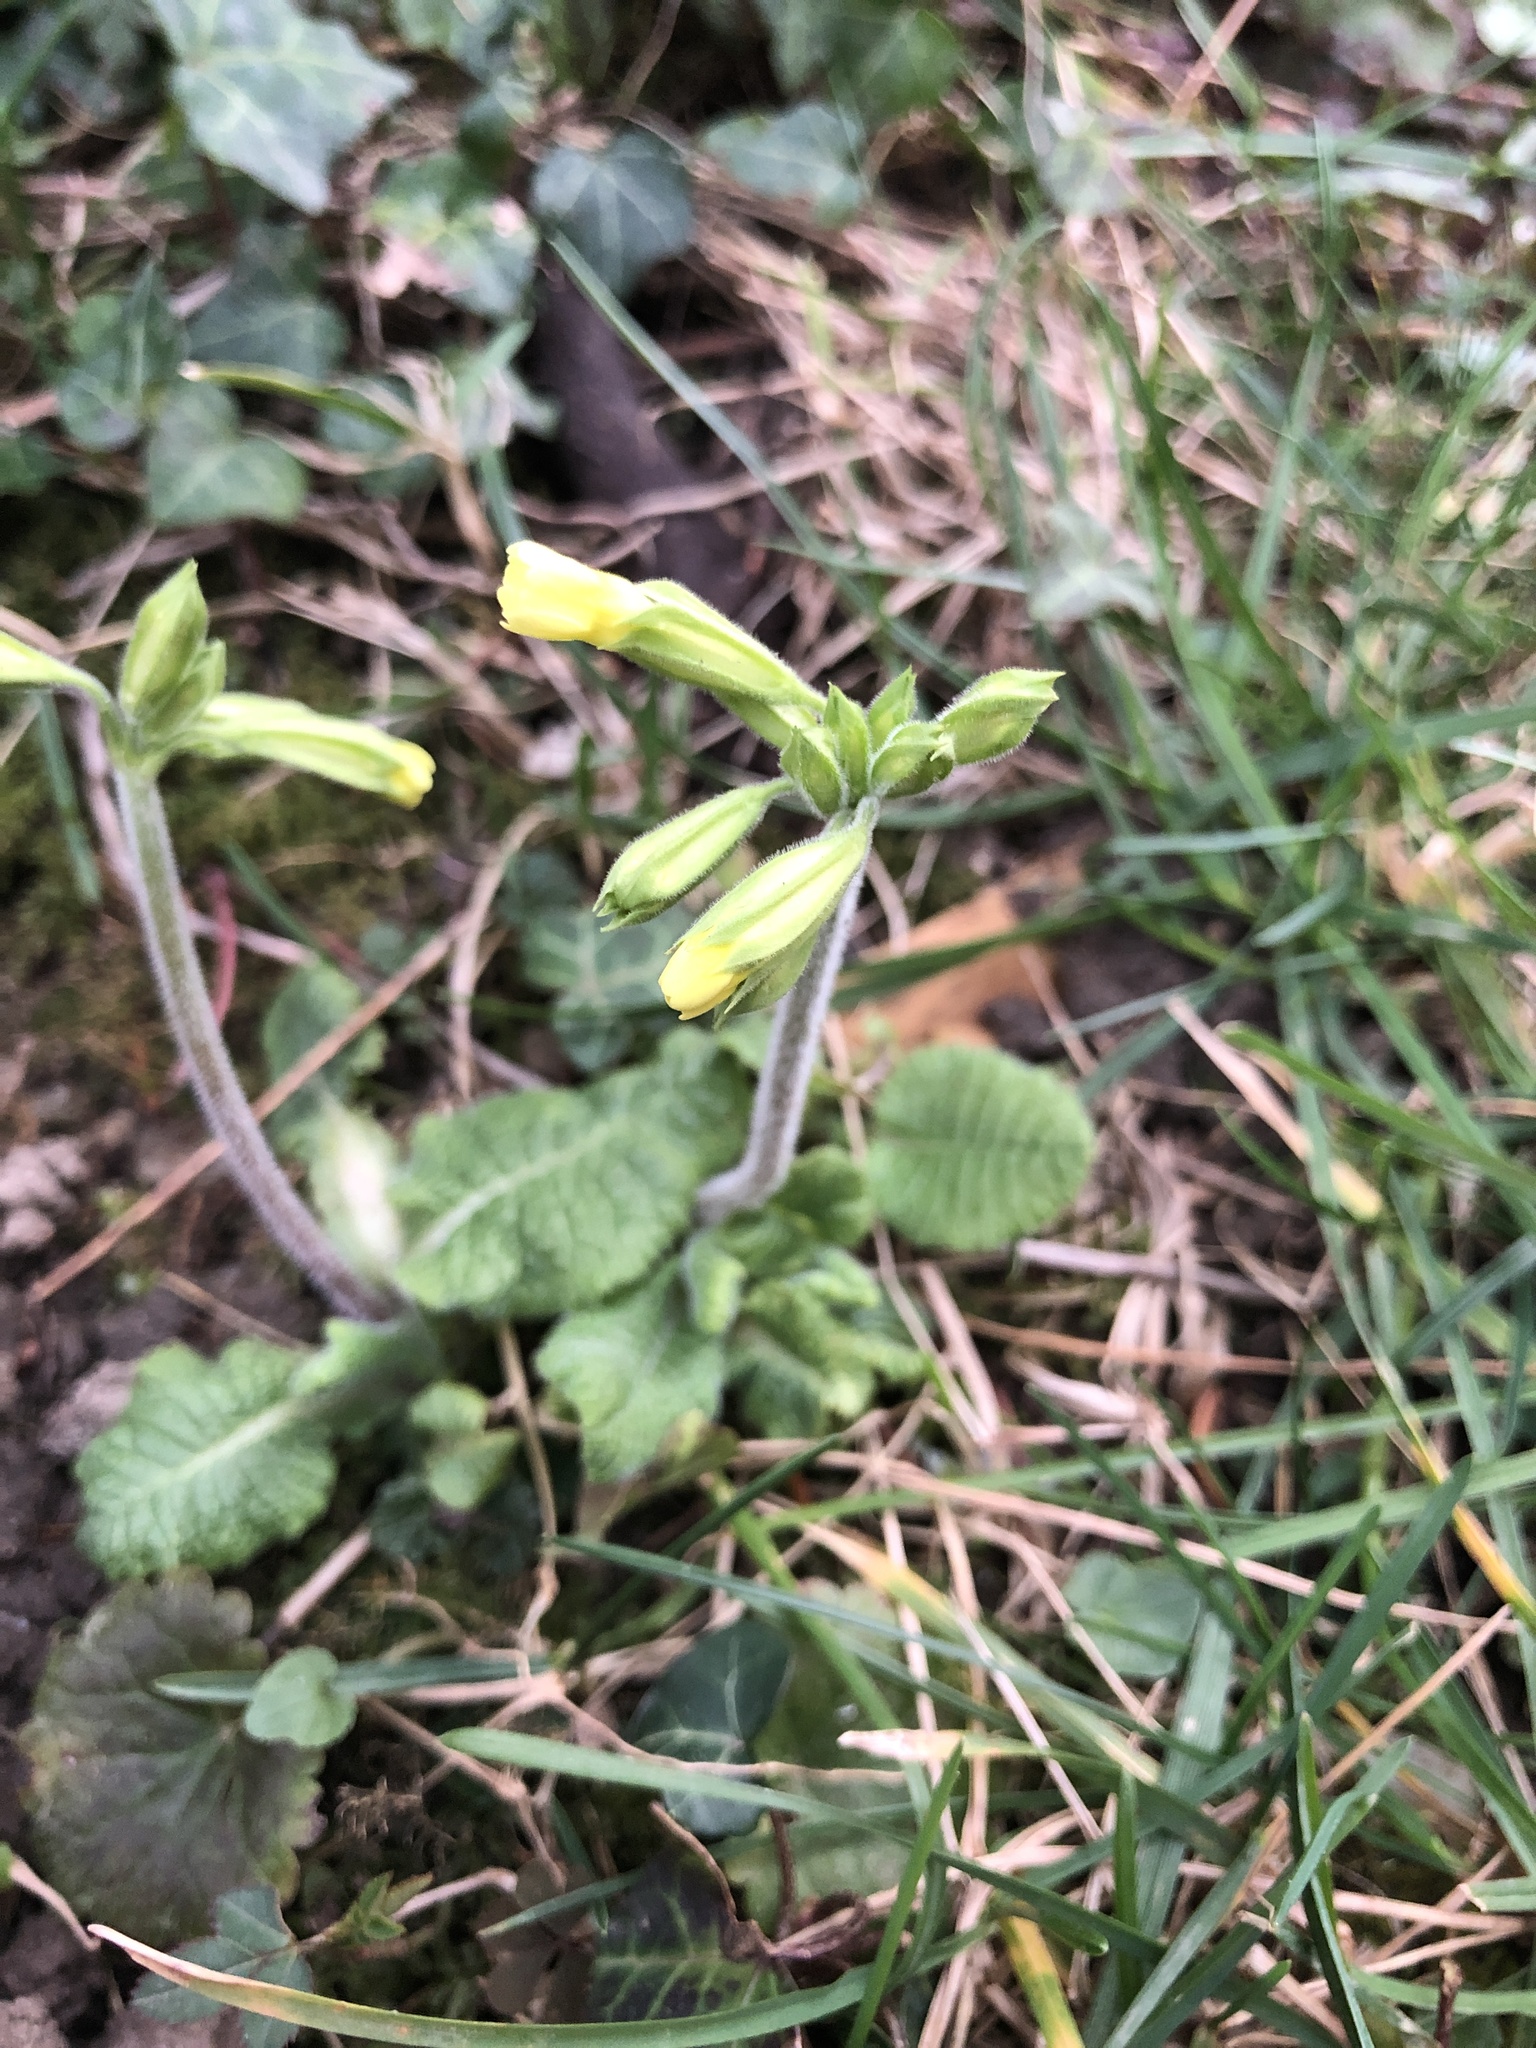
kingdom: Plantae
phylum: Tracheophyta
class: Magnoliopsida
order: Ericales
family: Primulaceae
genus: Primula
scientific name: Primula elatior
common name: Oxlip
